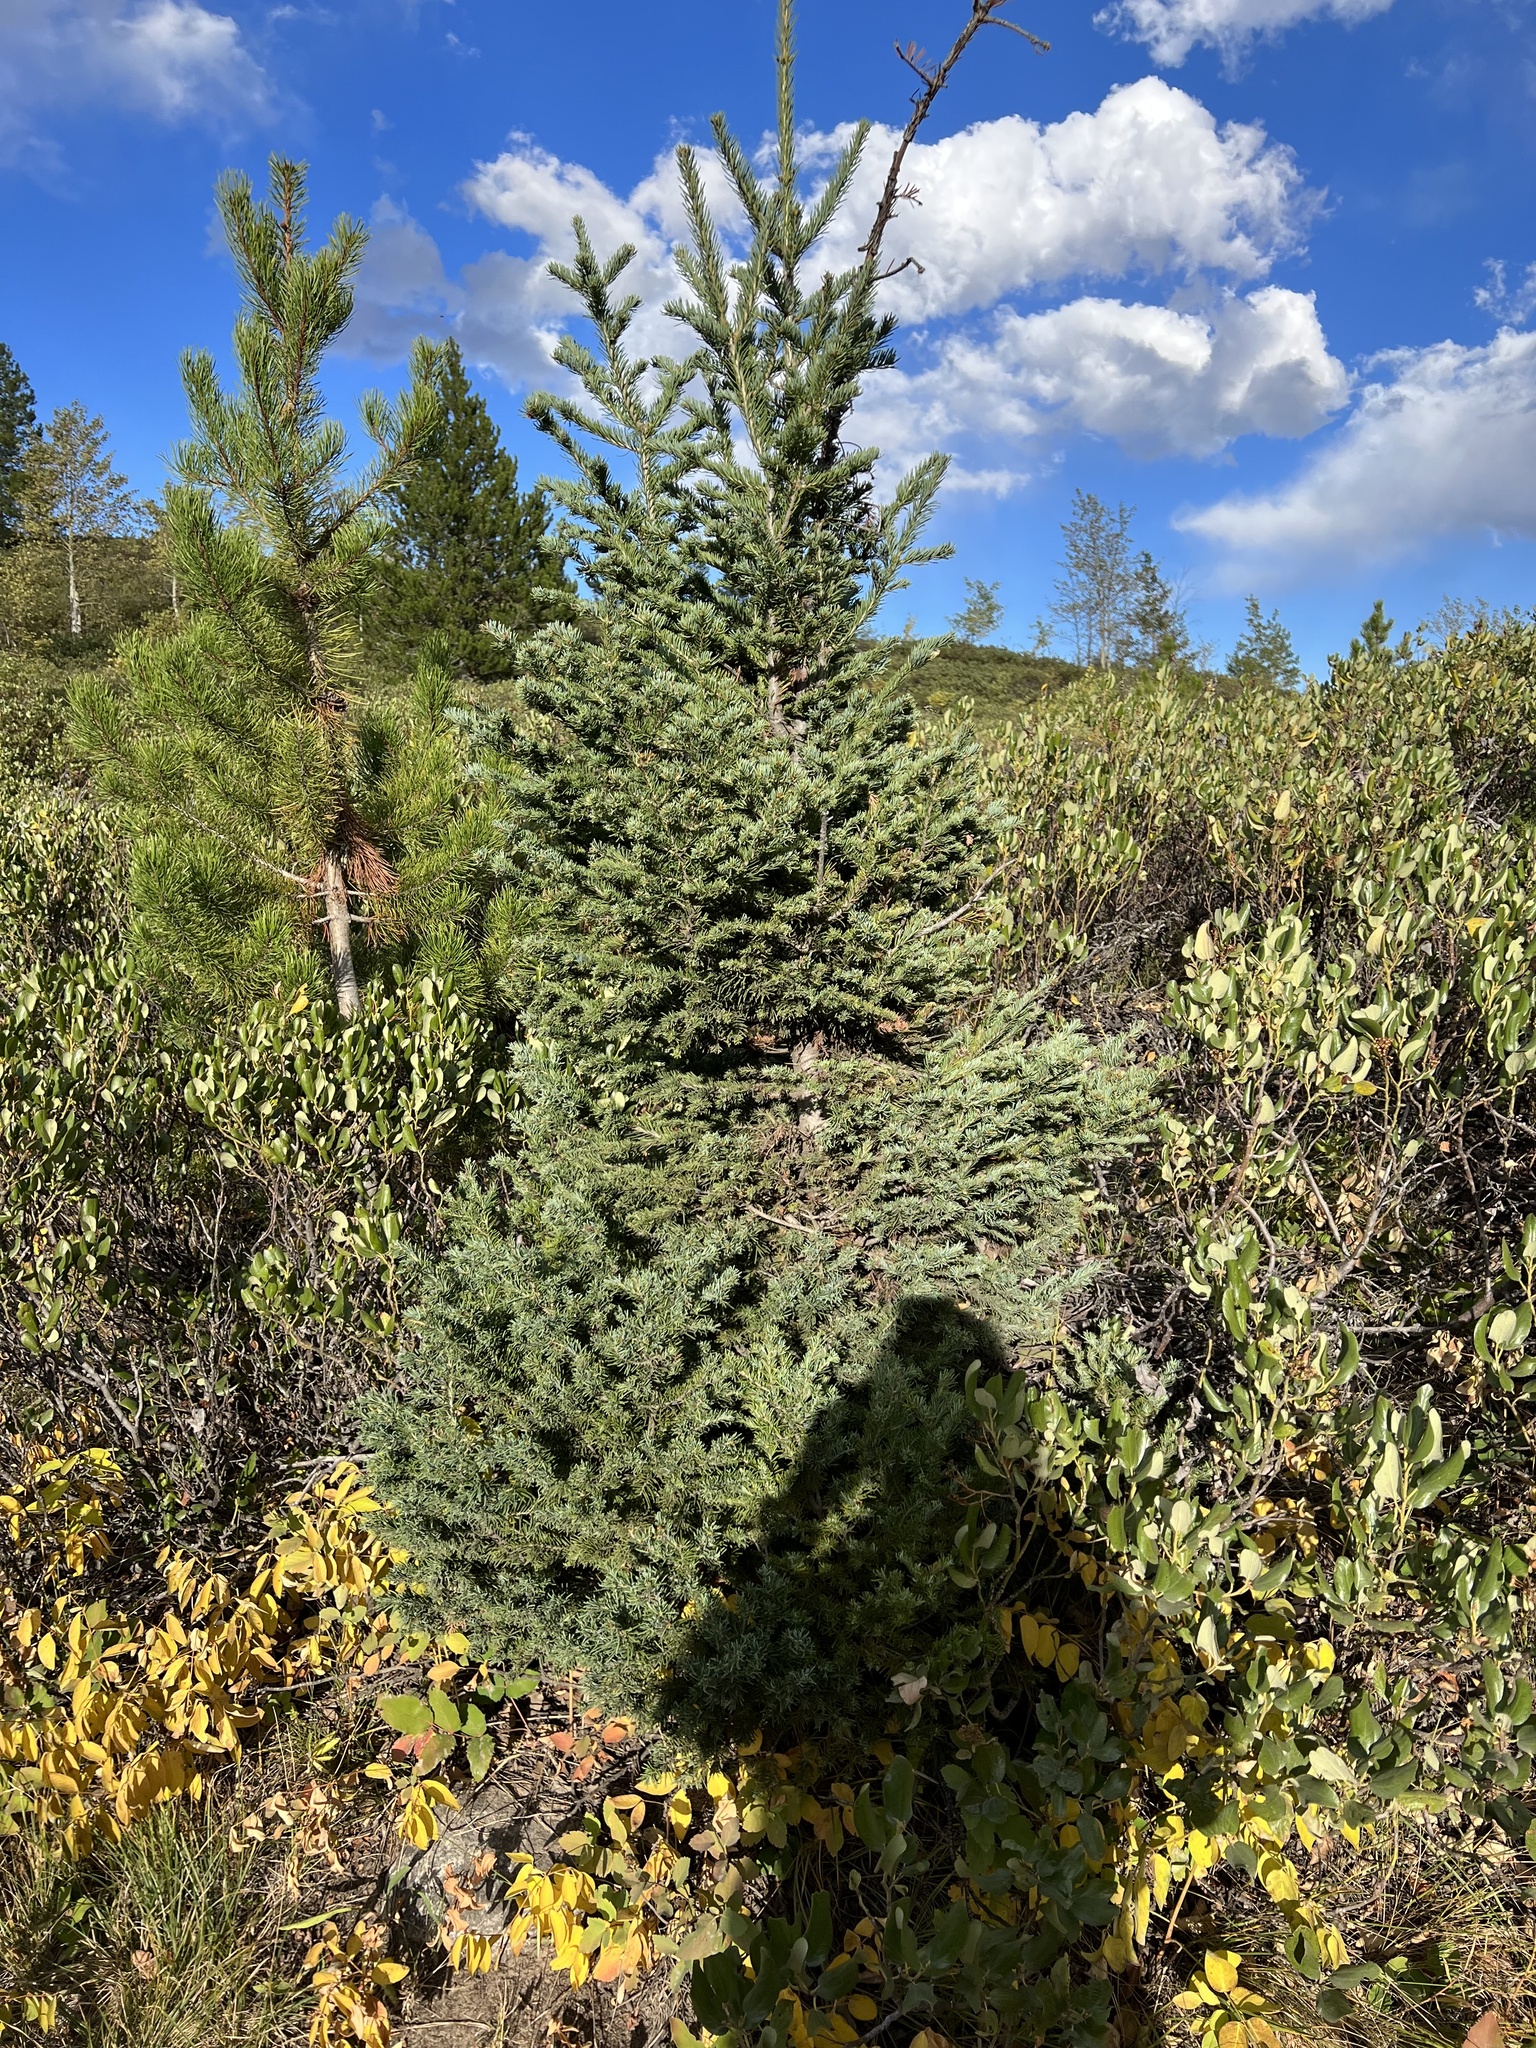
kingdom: Plantae
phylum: Tracheophyta
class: Pinopsida
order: Pinales
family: Pinaceae
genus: Abies
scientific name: Abies lasiocarpa
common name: Subalpine fir
